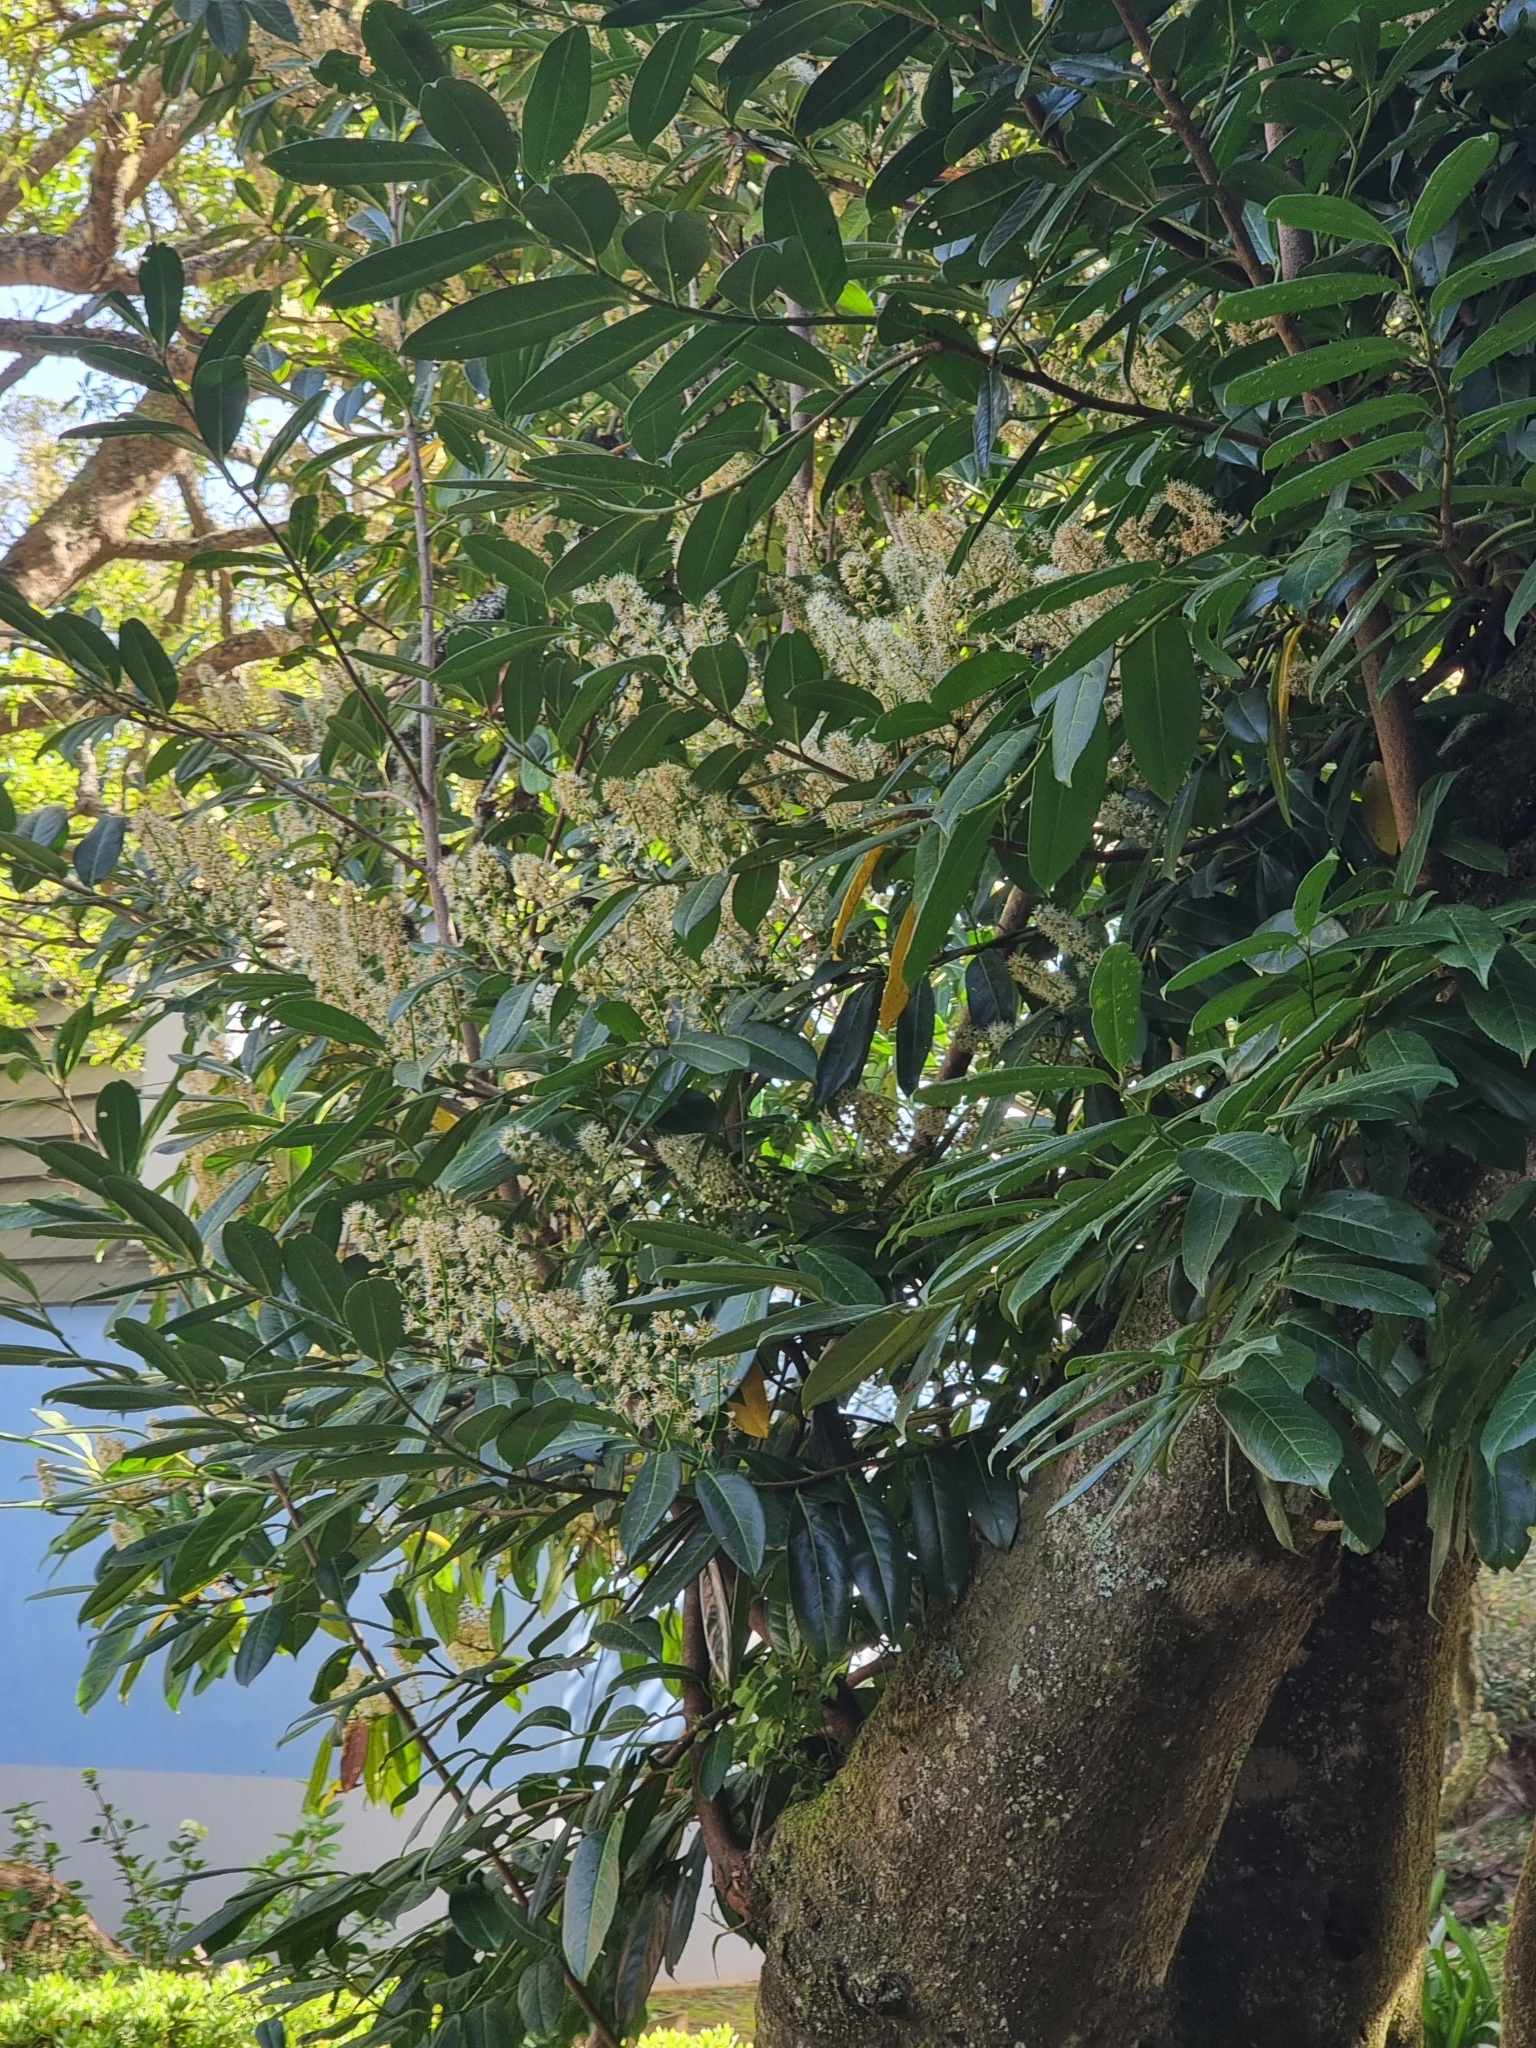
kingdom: Plantae
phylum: Tracheophyta
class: Magnoliopsida
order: Rosales
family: Rosaceae
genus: Prunus
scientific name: Prunus laurocerasus
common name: Cherry laurel
